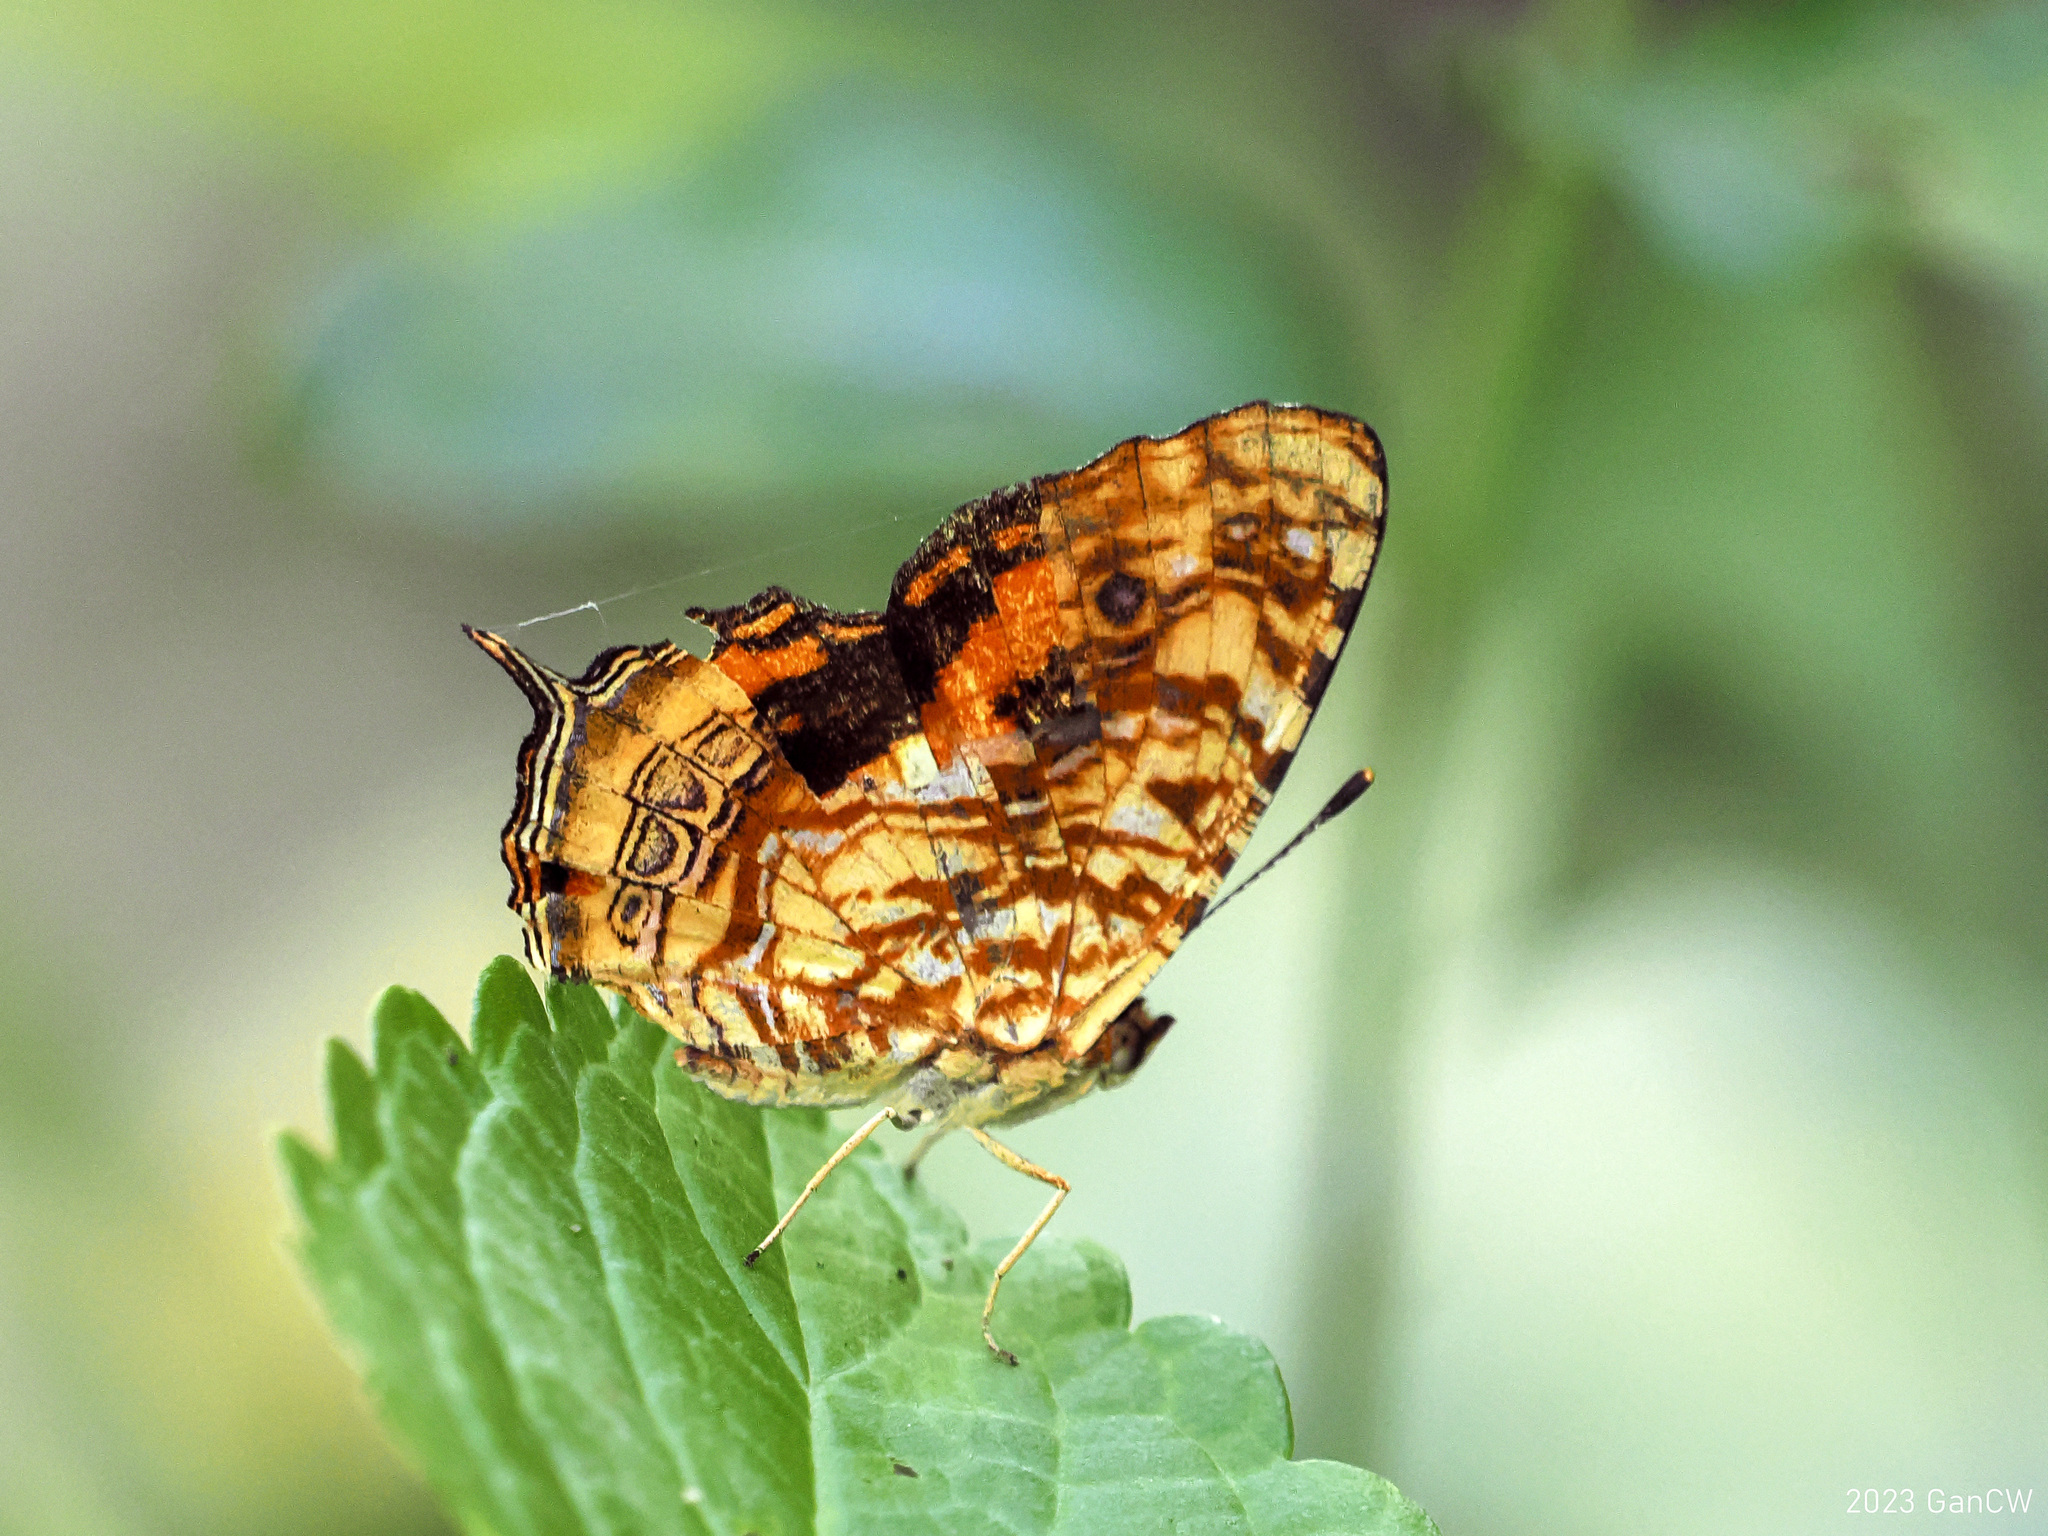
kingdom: Animalia
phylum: Arthropoda
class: Insecta
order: Lepidoptera
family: Nymphalidae
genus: Symbrenthia
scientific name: Symbrenthia intricata
